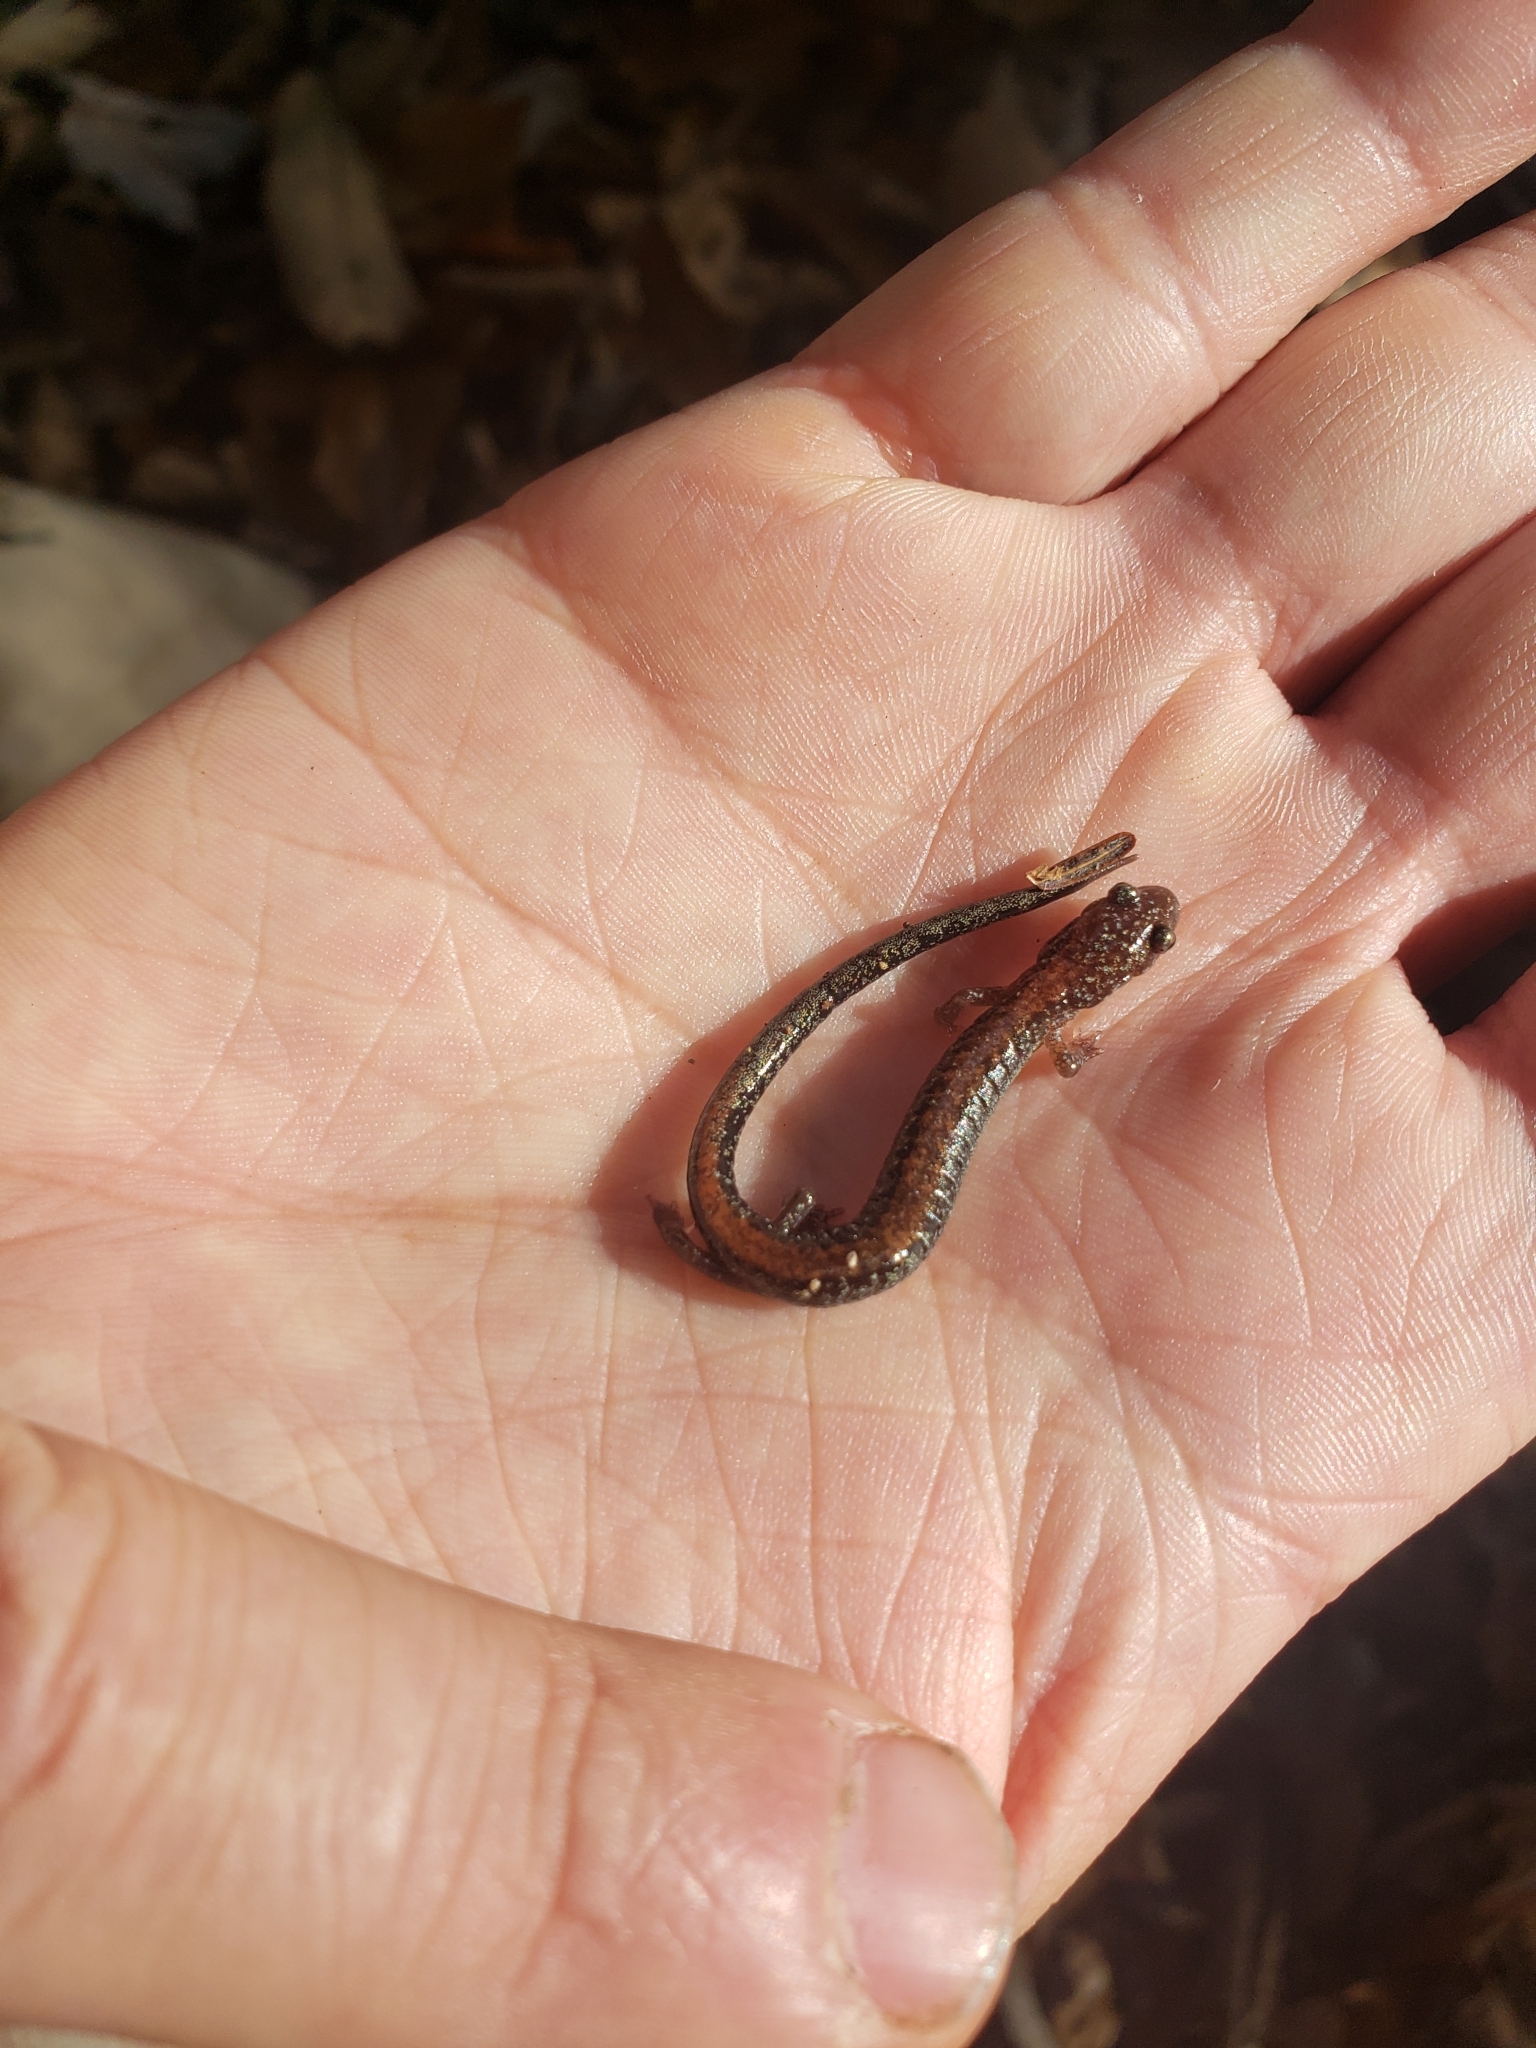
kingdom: Animalia
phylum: Chordata
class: Amphibia
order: Caudata
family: Plethodontidae
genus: Plethodon
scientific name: Plethodon cinereus
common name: Redback salamander
